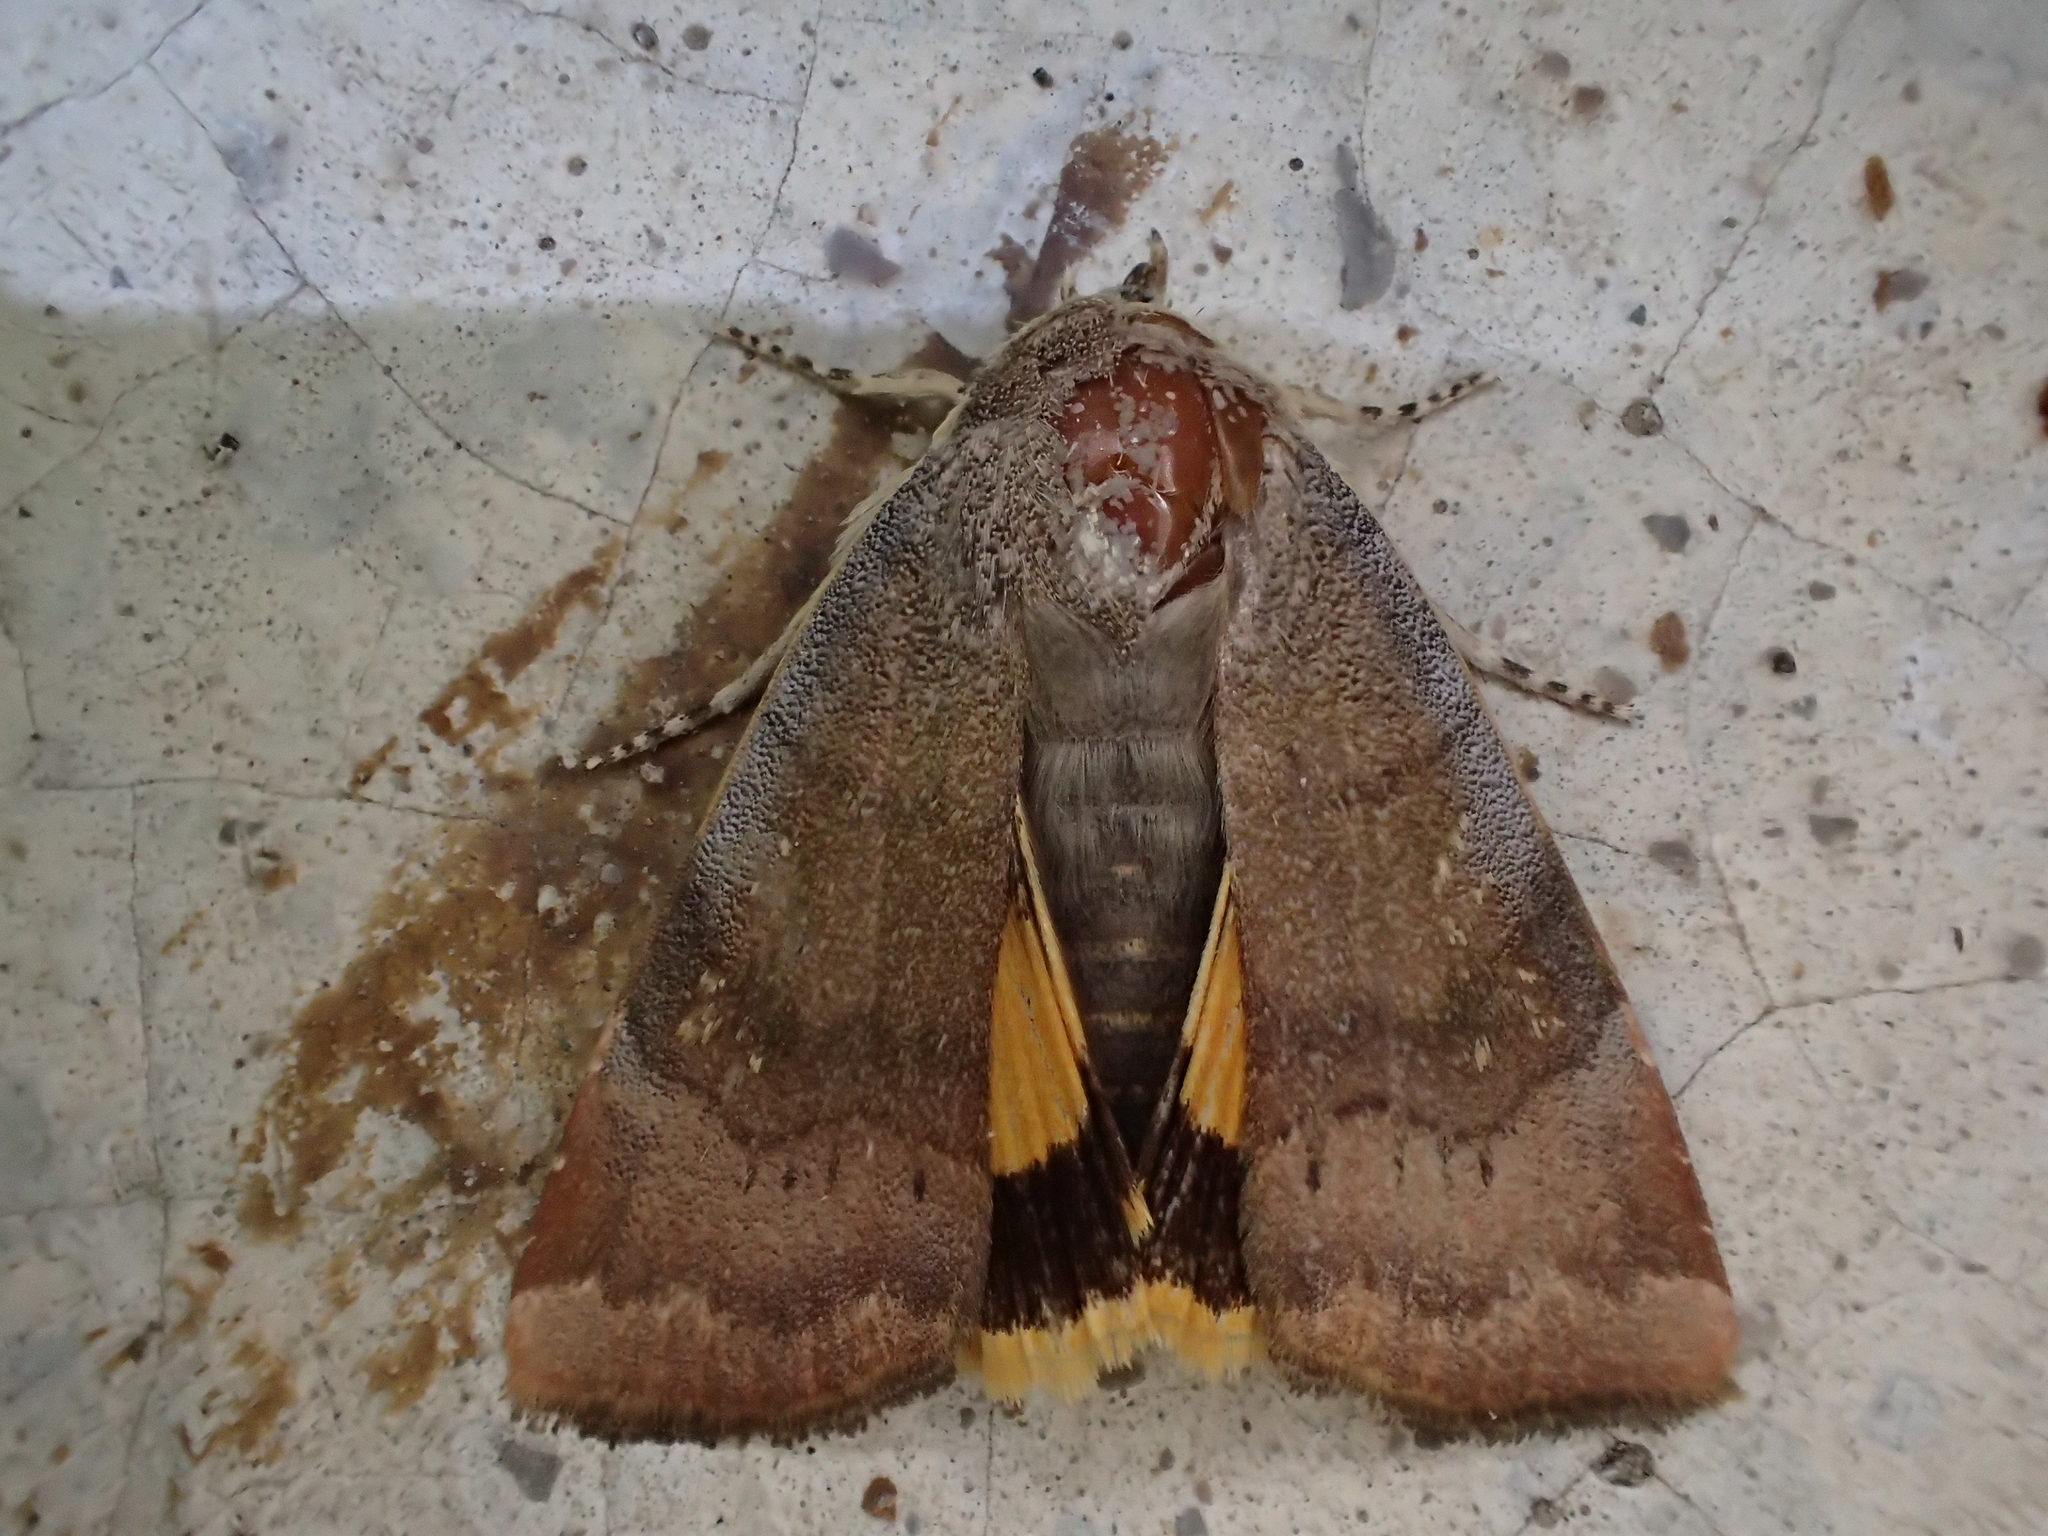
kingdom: Animalia
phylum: Arthropoda
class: Insecta
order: Lepidoptera
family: Noctuidae
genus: Noctua
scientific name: Noctua
